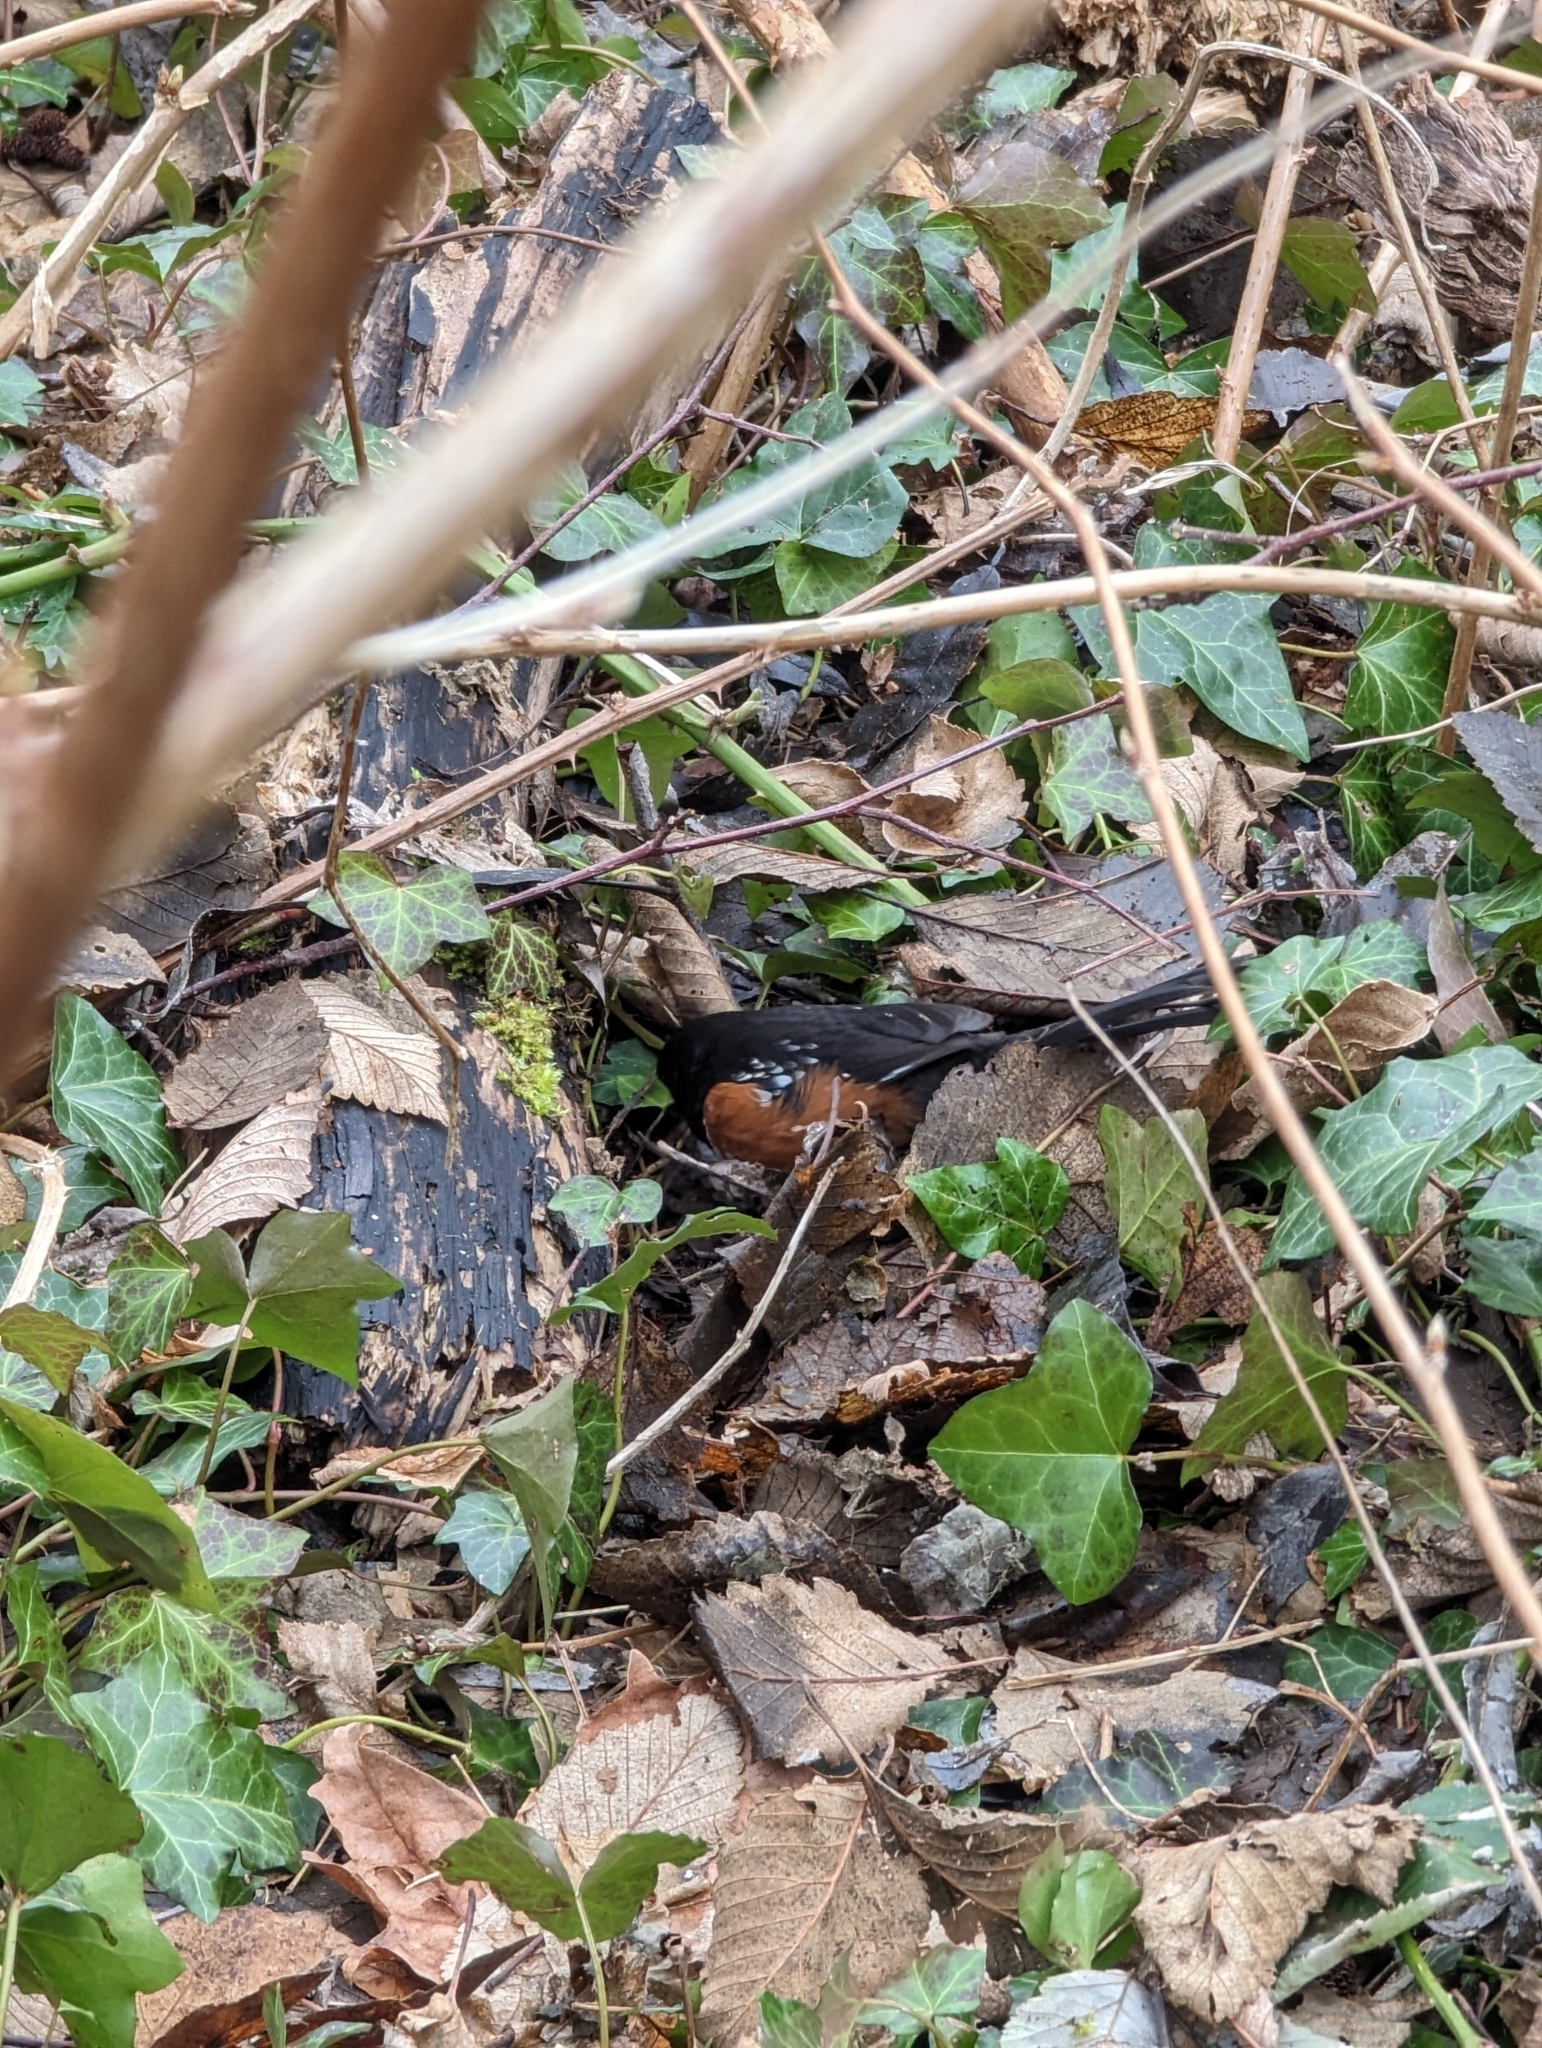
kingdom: Animalia
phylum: Chordata
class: Aves
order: Passeriformes
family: Passerellidae
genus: Pipilo
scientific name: Pipilo maculatus
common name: Spotted towhee
